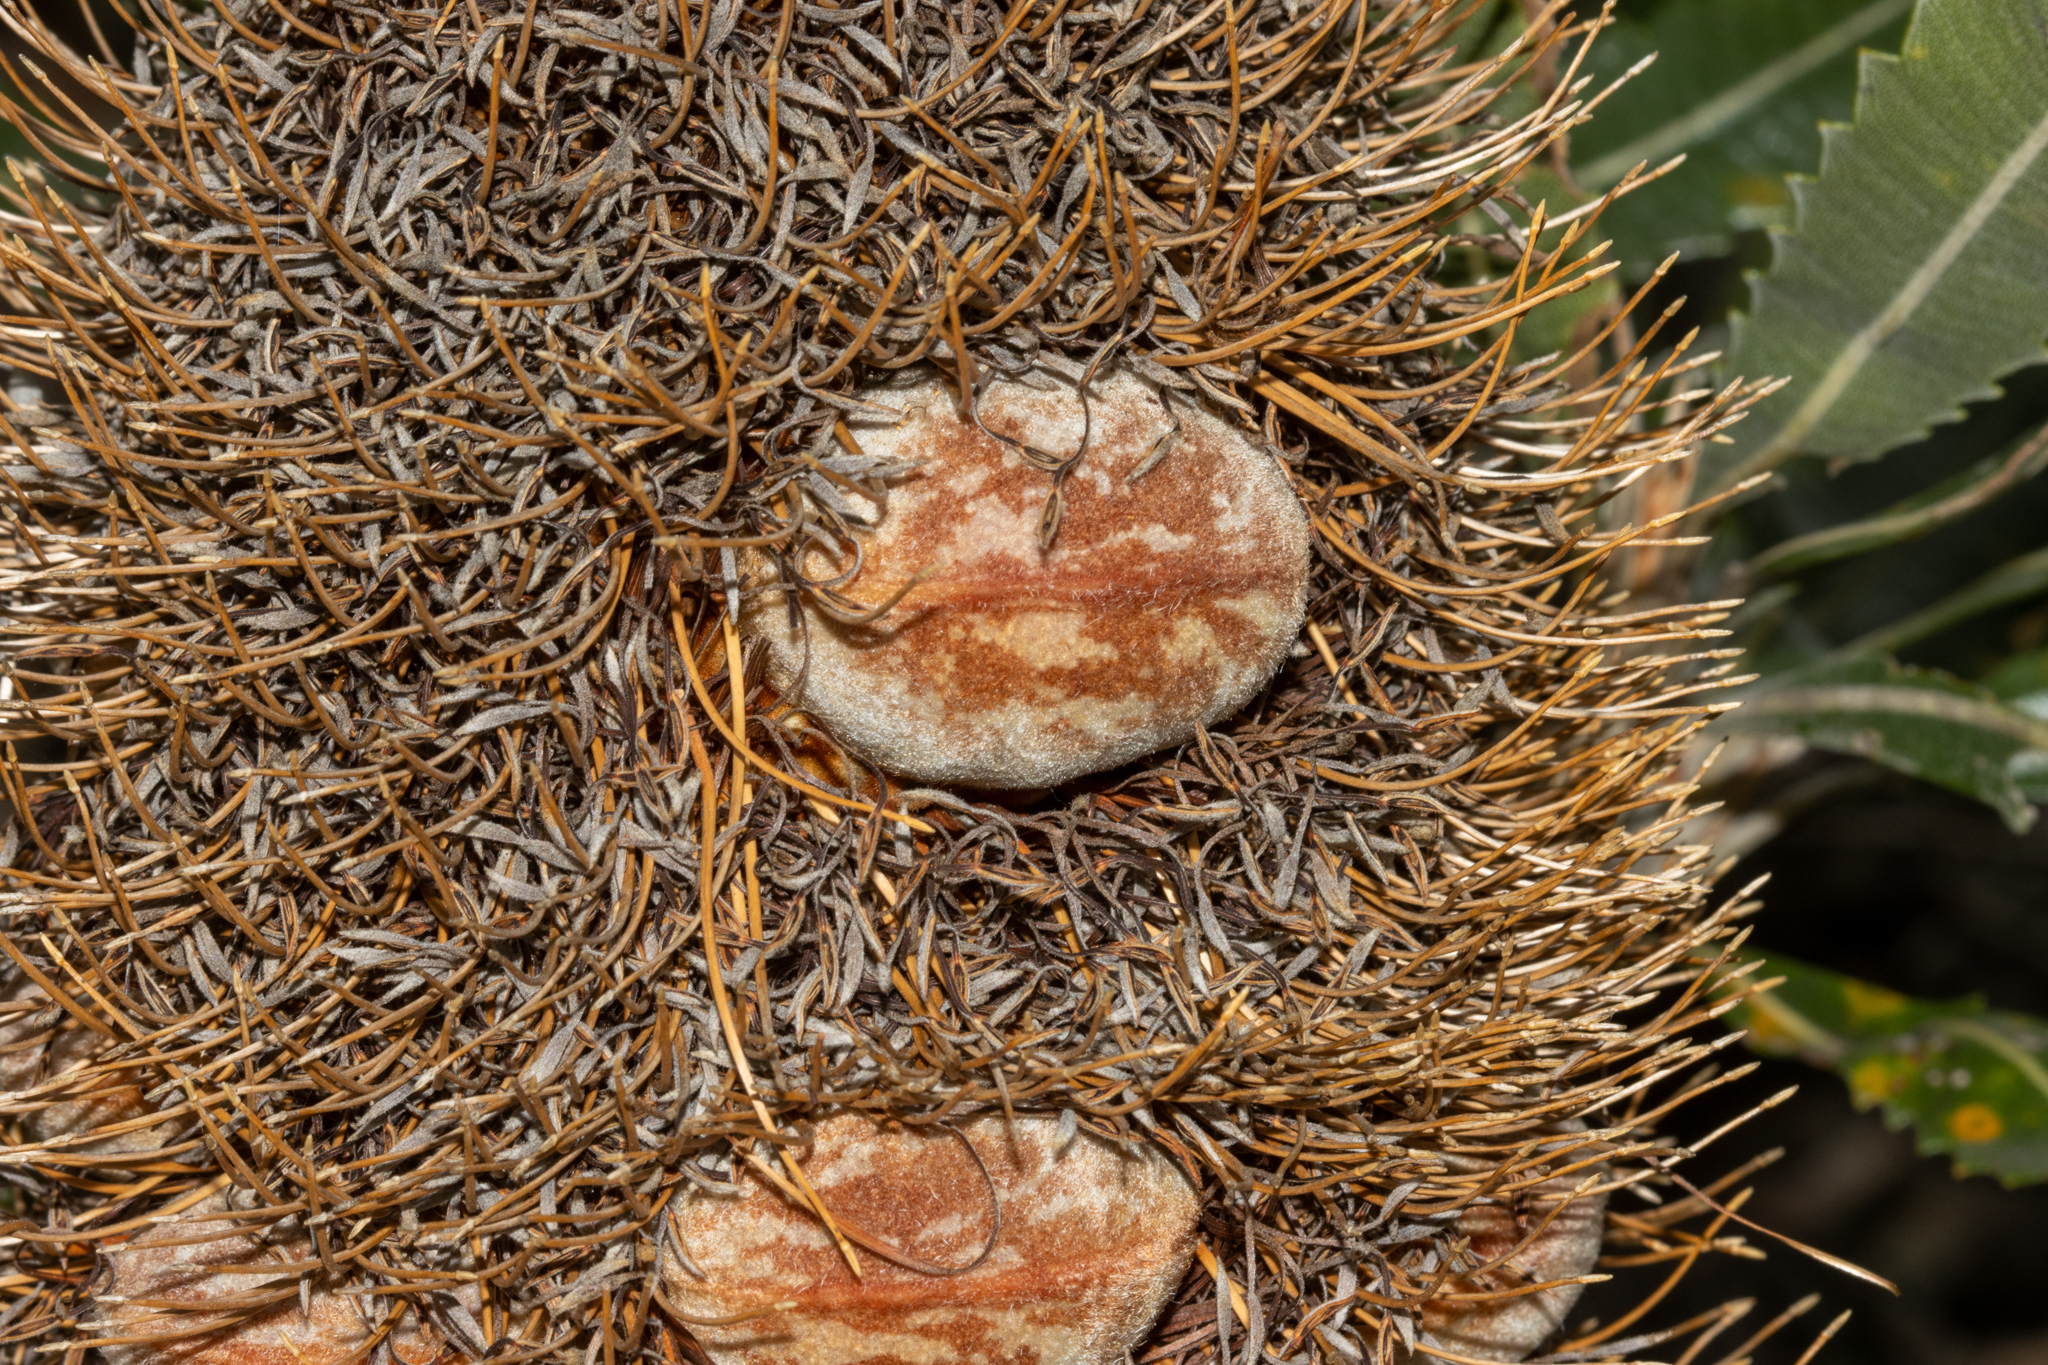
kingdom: Plantae
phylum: Tracheophyta
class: Magnoliopsida
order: Proteales
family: Proteaceae
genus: Banksia
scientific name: Banksia serrata
